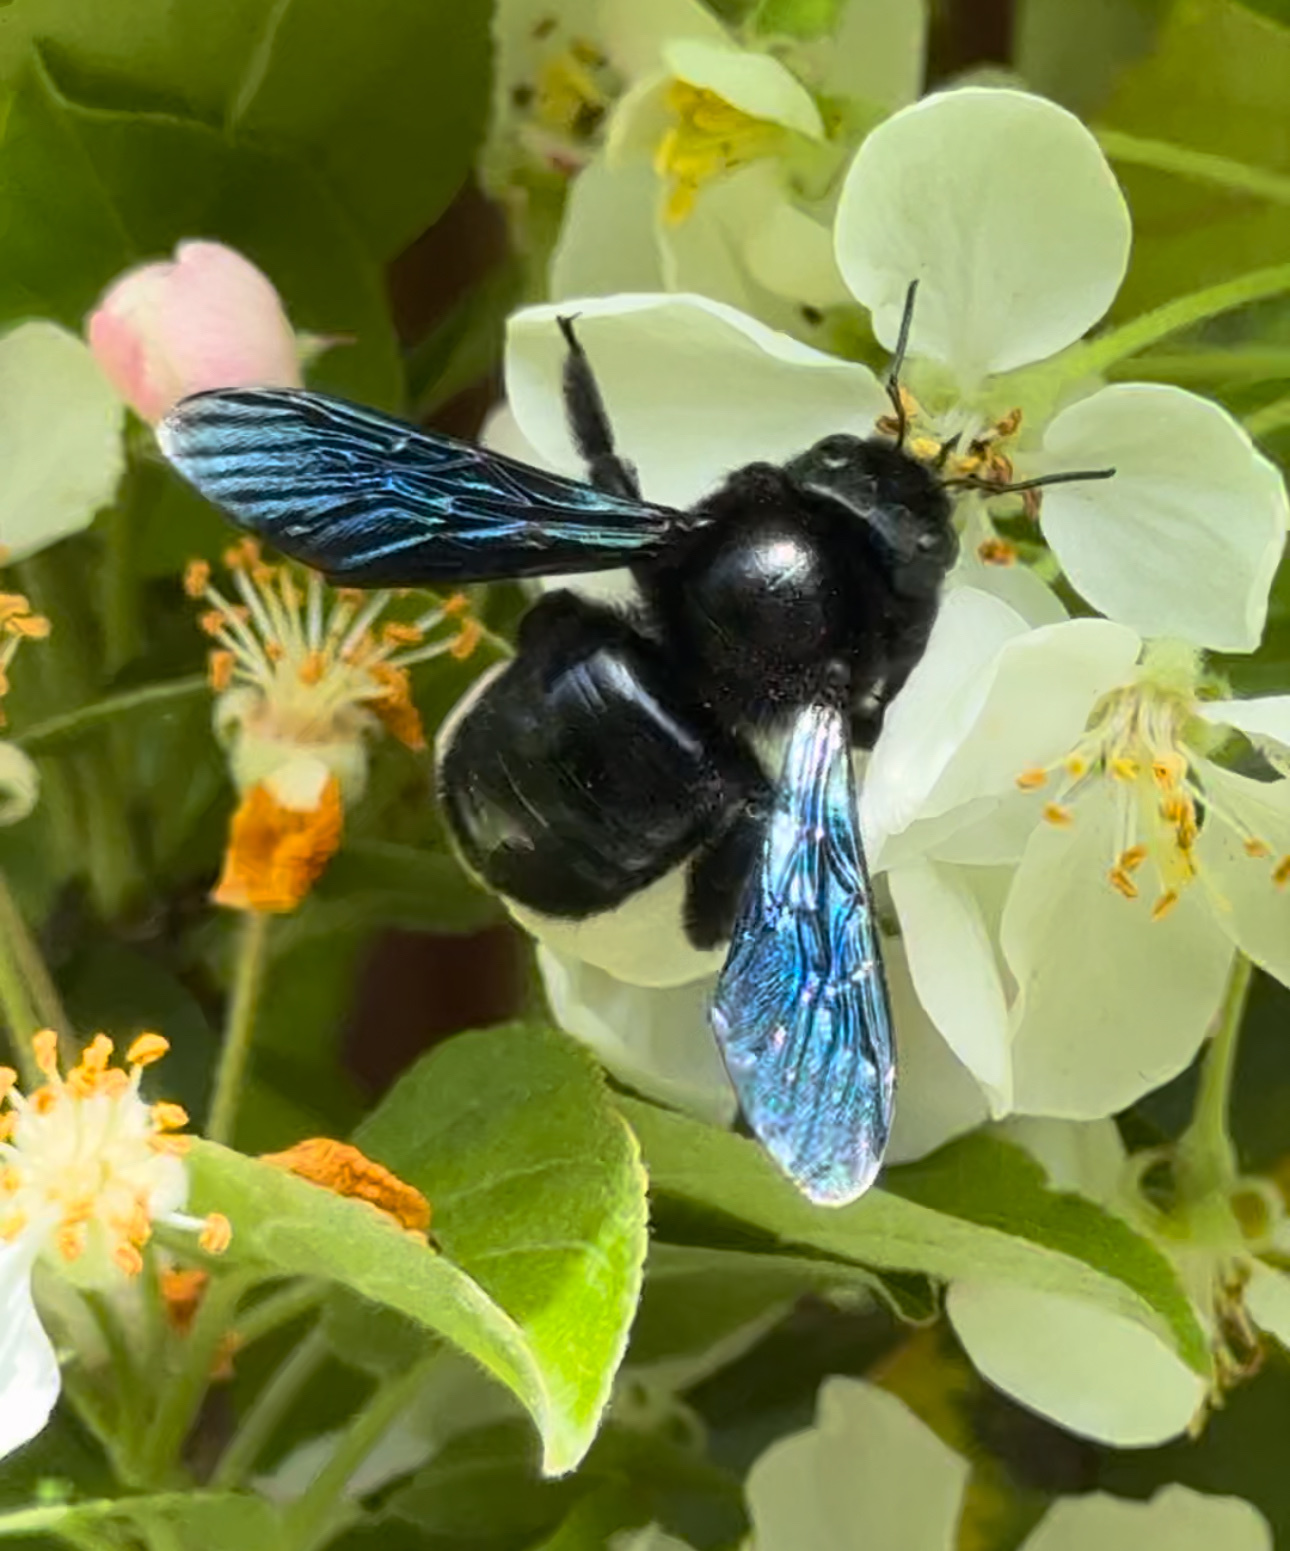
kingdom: Animalia
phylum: Arthropoda
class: Insecta
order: Hymenoptera
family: Apidae
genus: Xylocopa
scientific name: Xylocopa
